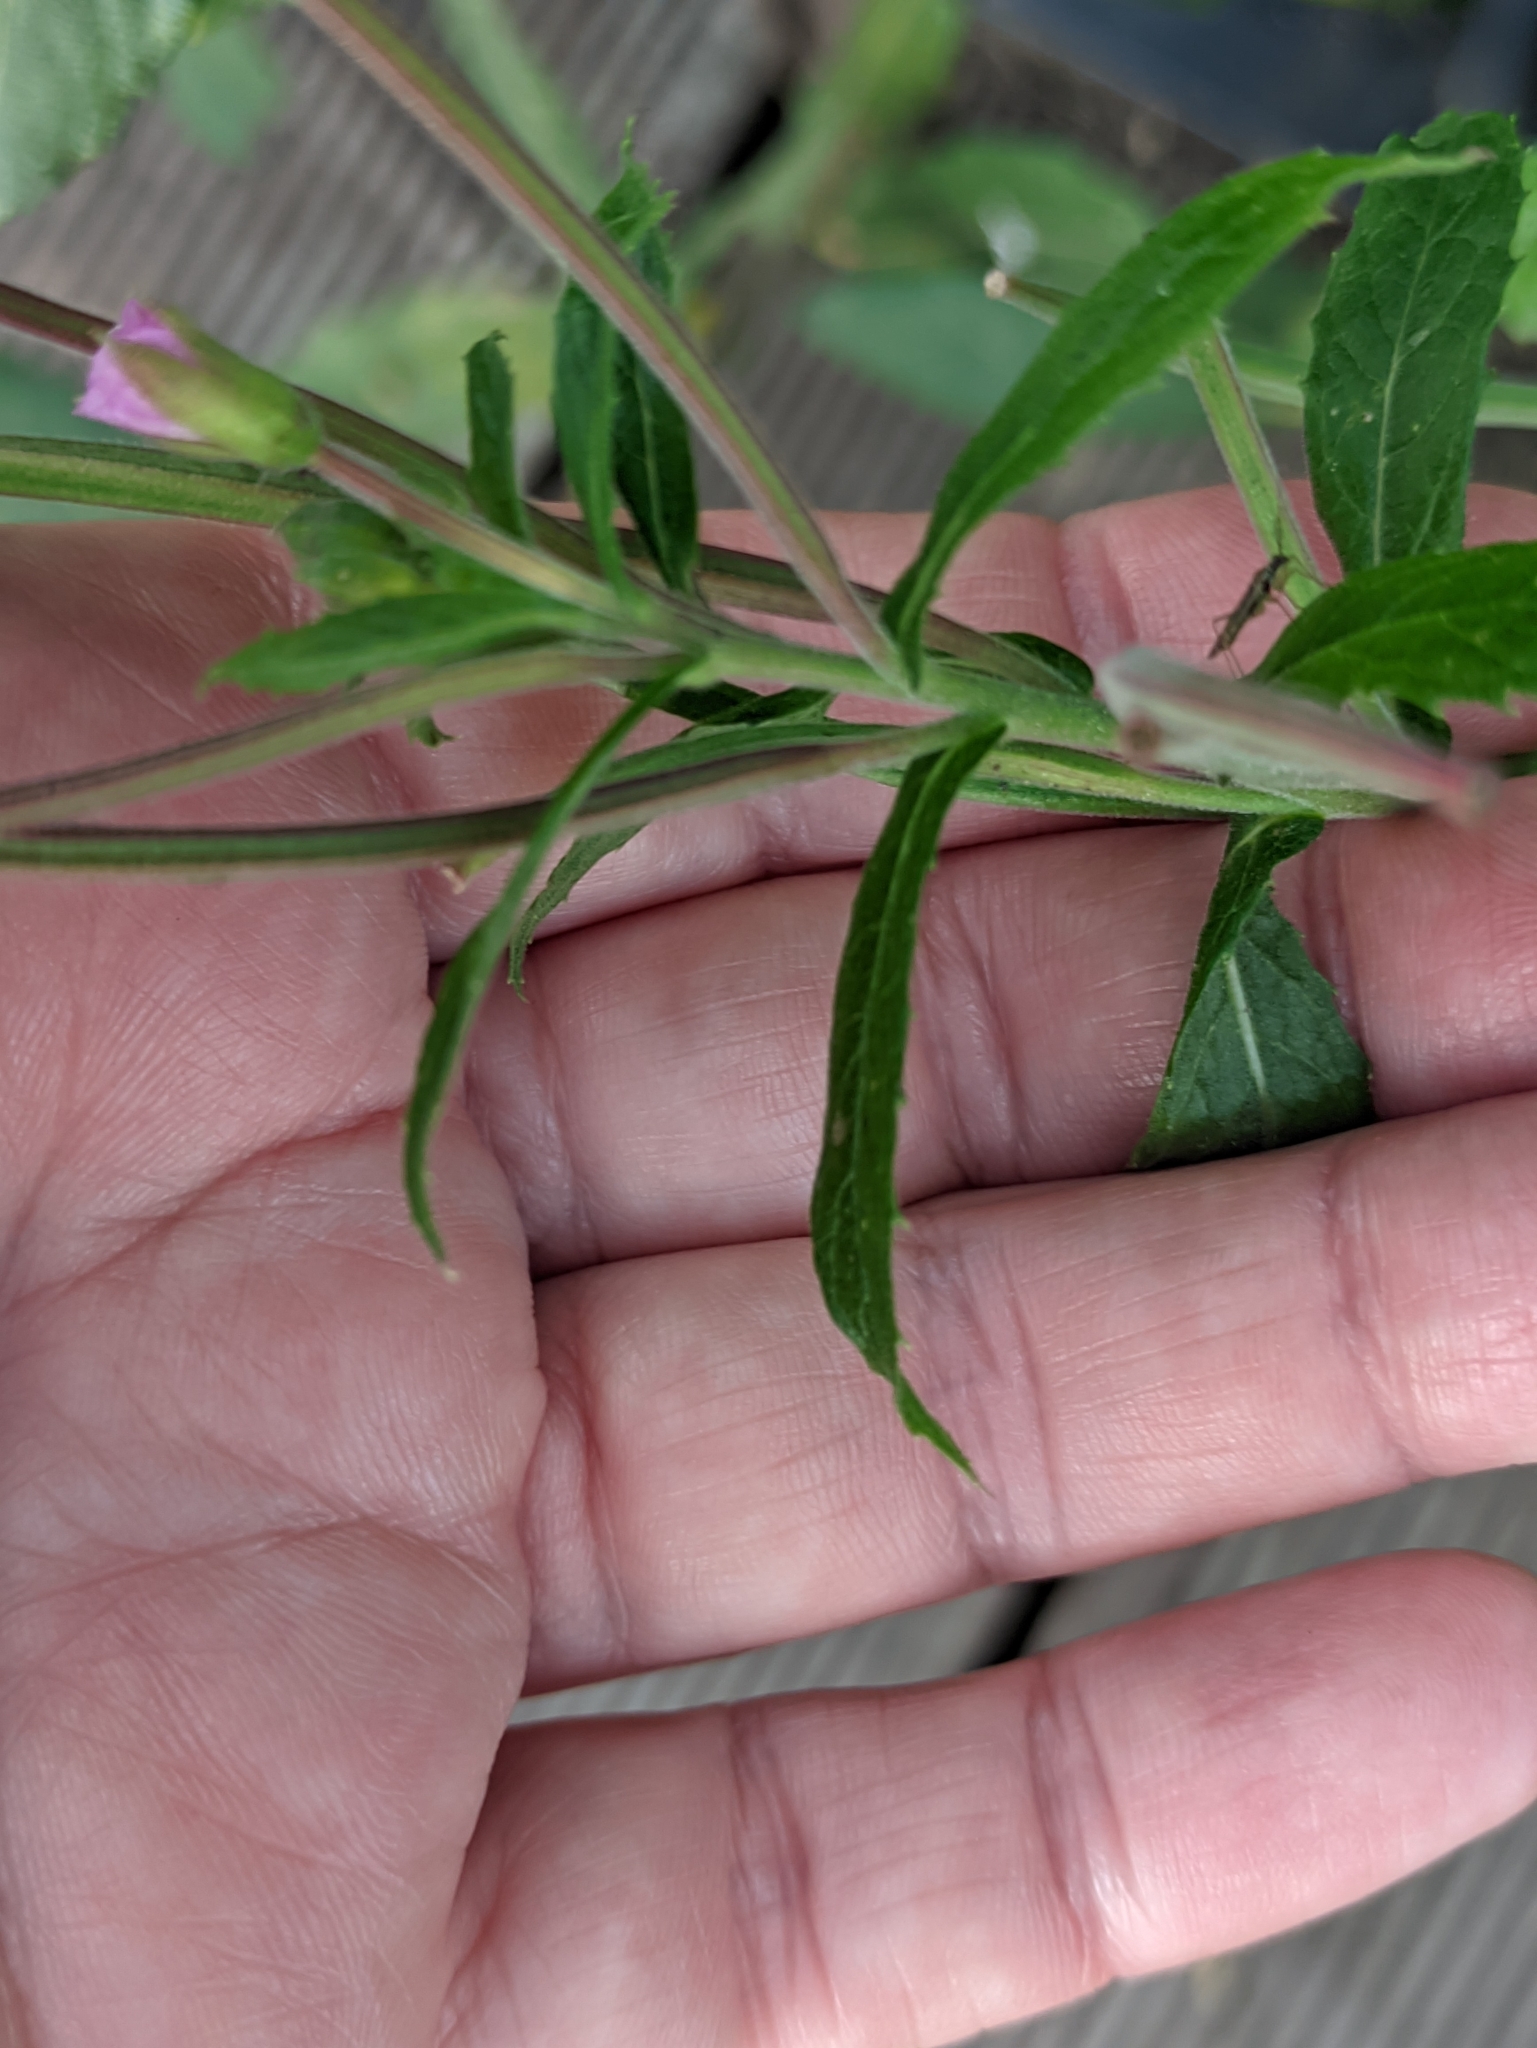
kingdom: Plantae
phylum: Tracheophyta
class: Magnoliopsida
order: Myrtales
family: Onagraceae
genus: Epilobium
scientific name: Epilobium hirsutum
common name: Great willowherb
